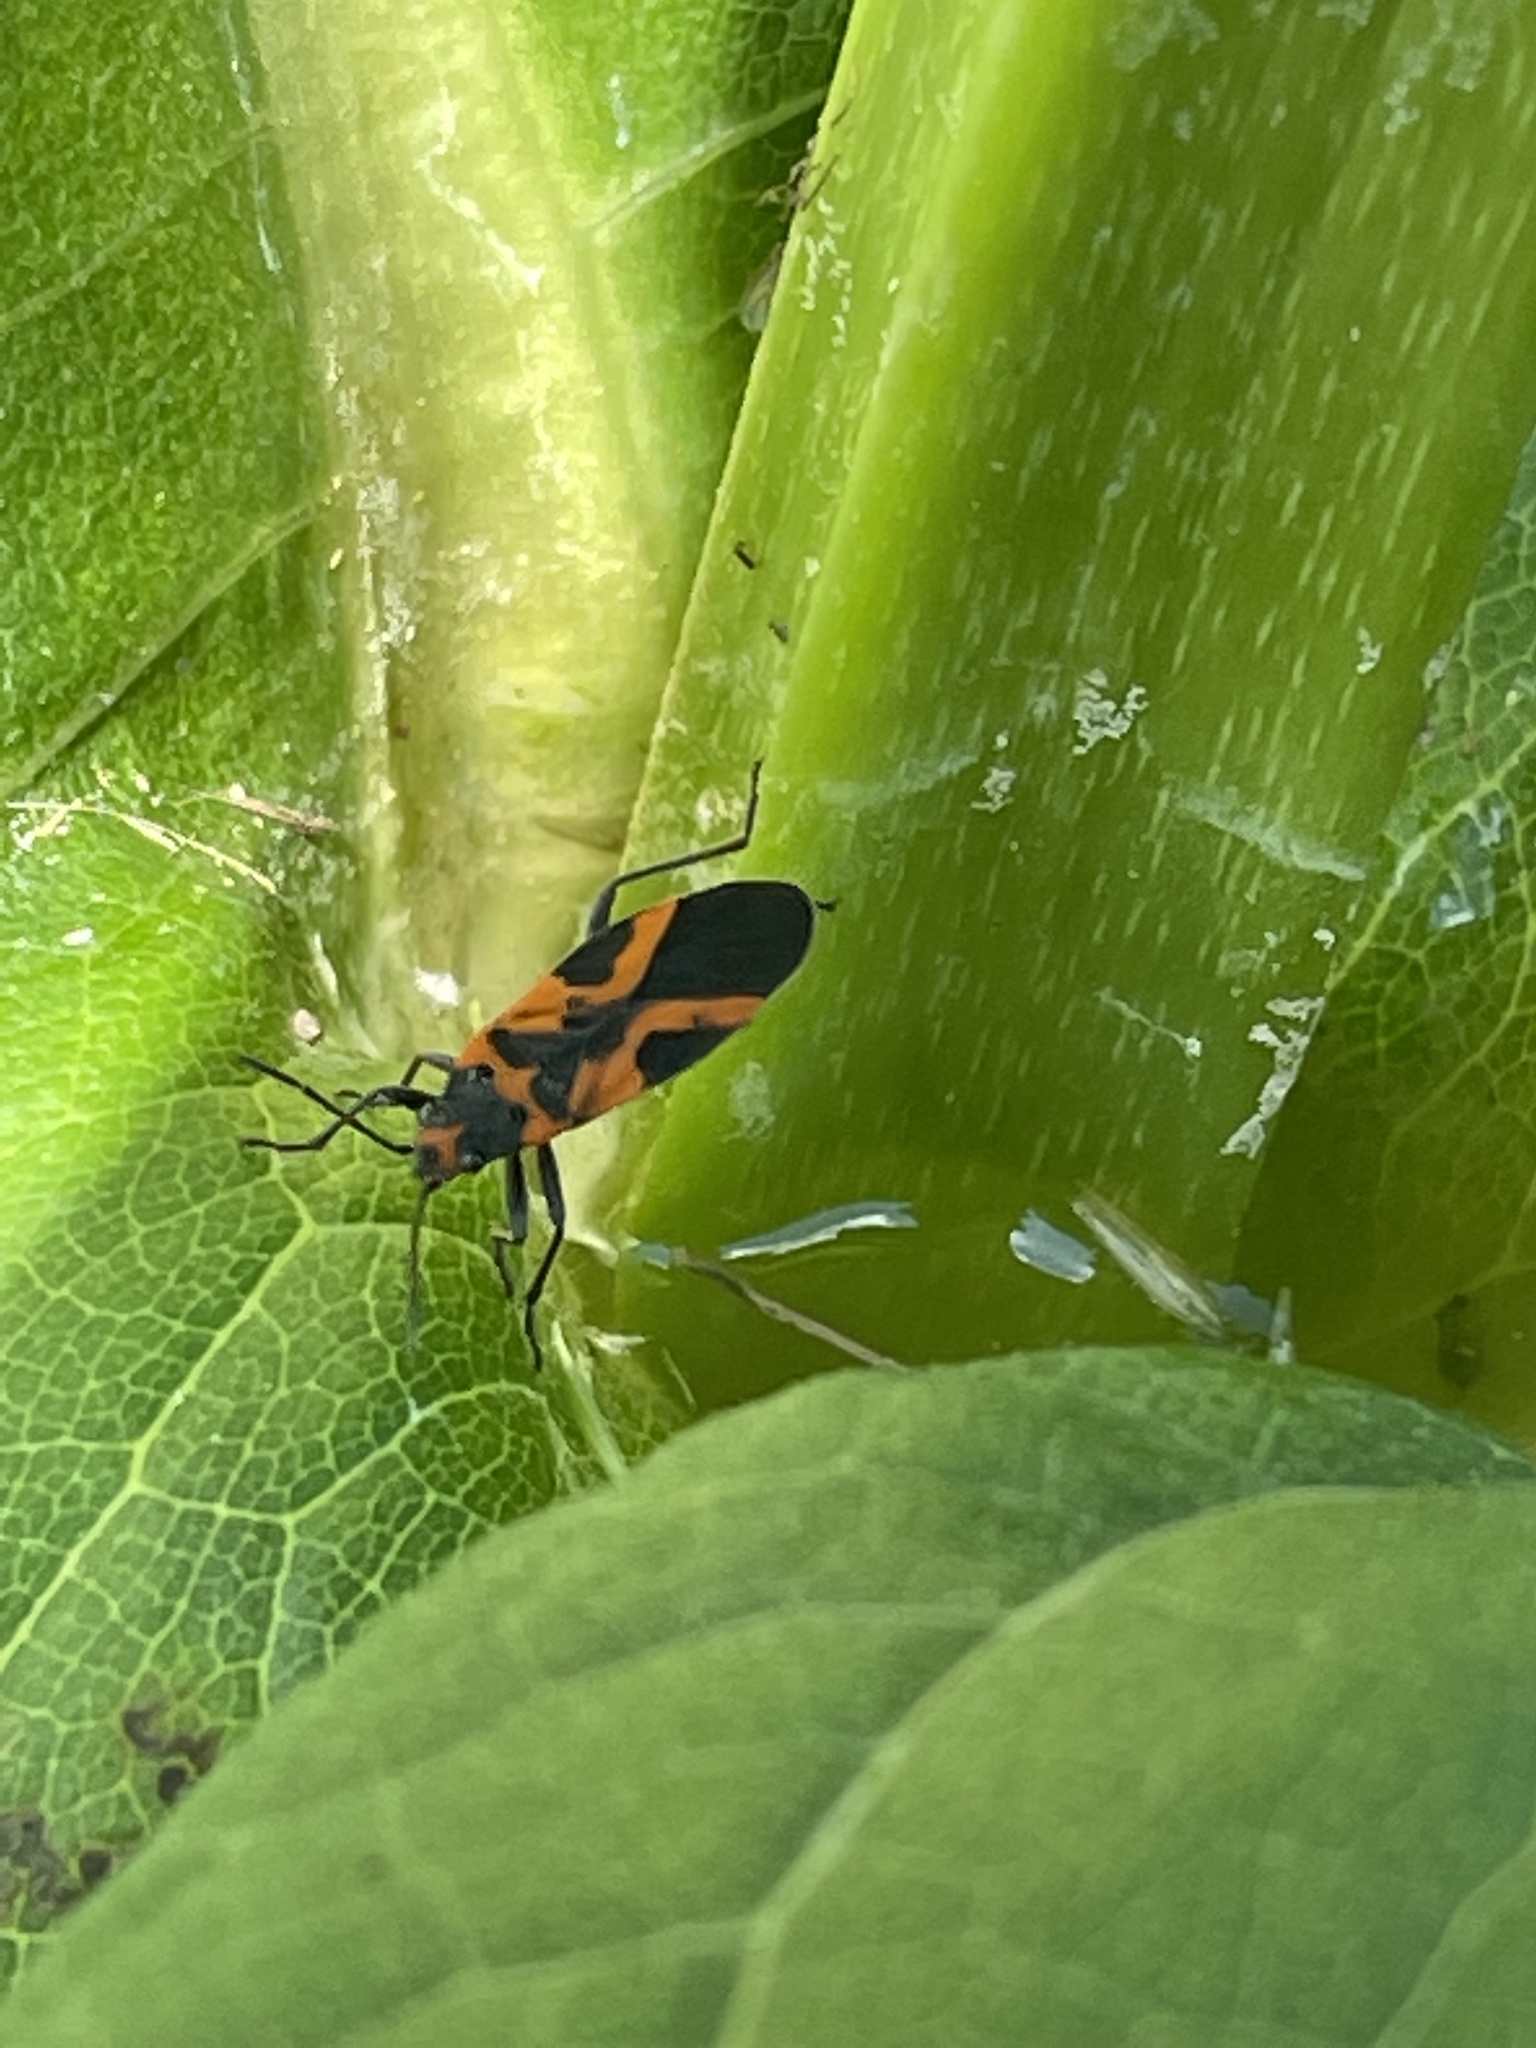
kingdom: Animalia
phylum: Arthropoda
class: Insecta
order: Hemiptera
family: Lygaeidae
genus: Lygaeus
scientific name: Lygaeus turcicus
